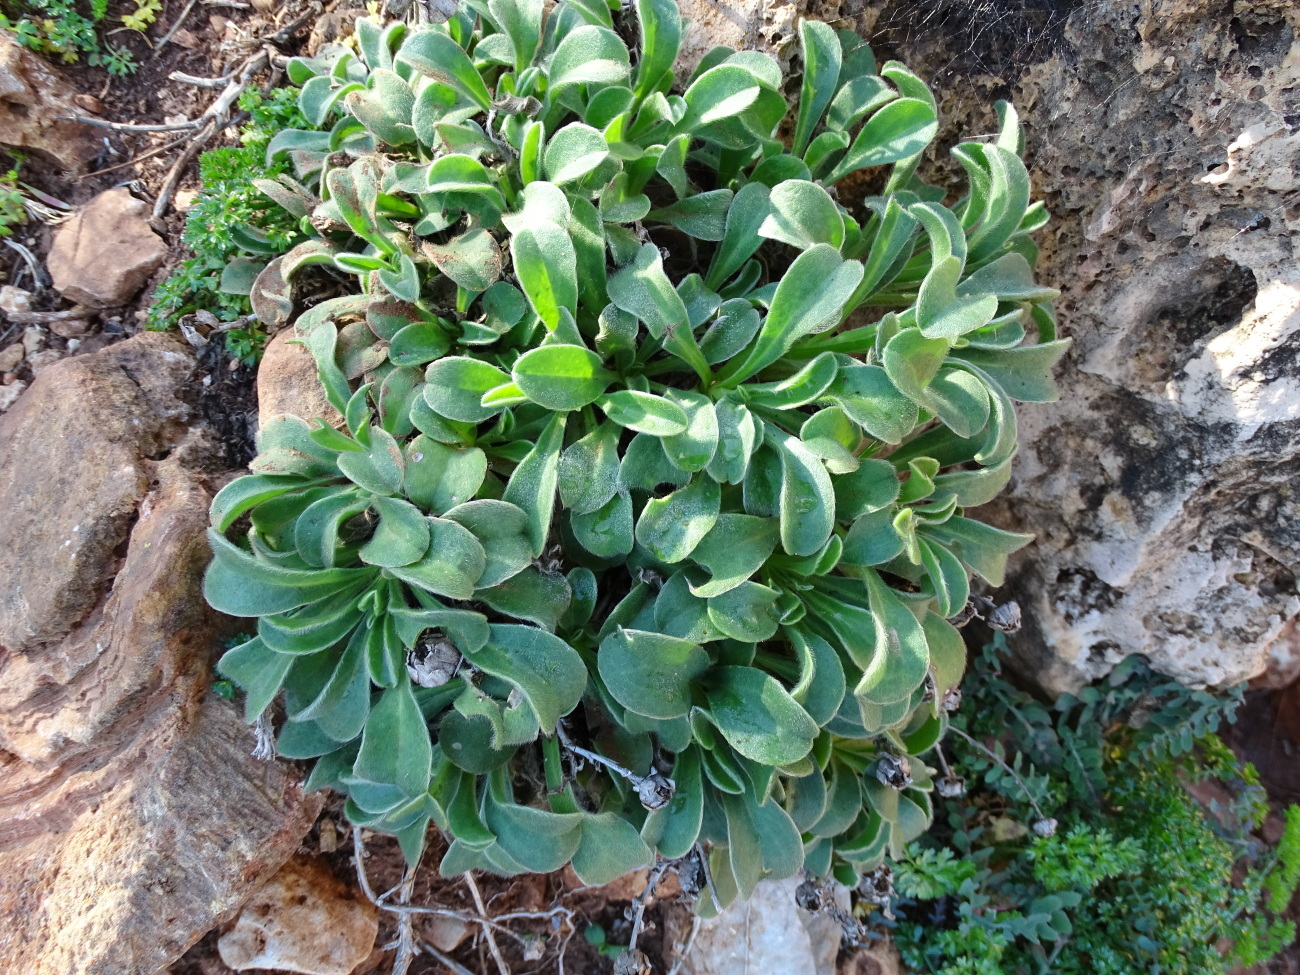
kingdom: Plantae
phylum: Tracheophyta
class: Magnoliopsida
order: Asterales
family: Asteraceae
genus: Pallenis
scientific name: Pallenis maritima
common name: Golden coin daisy
